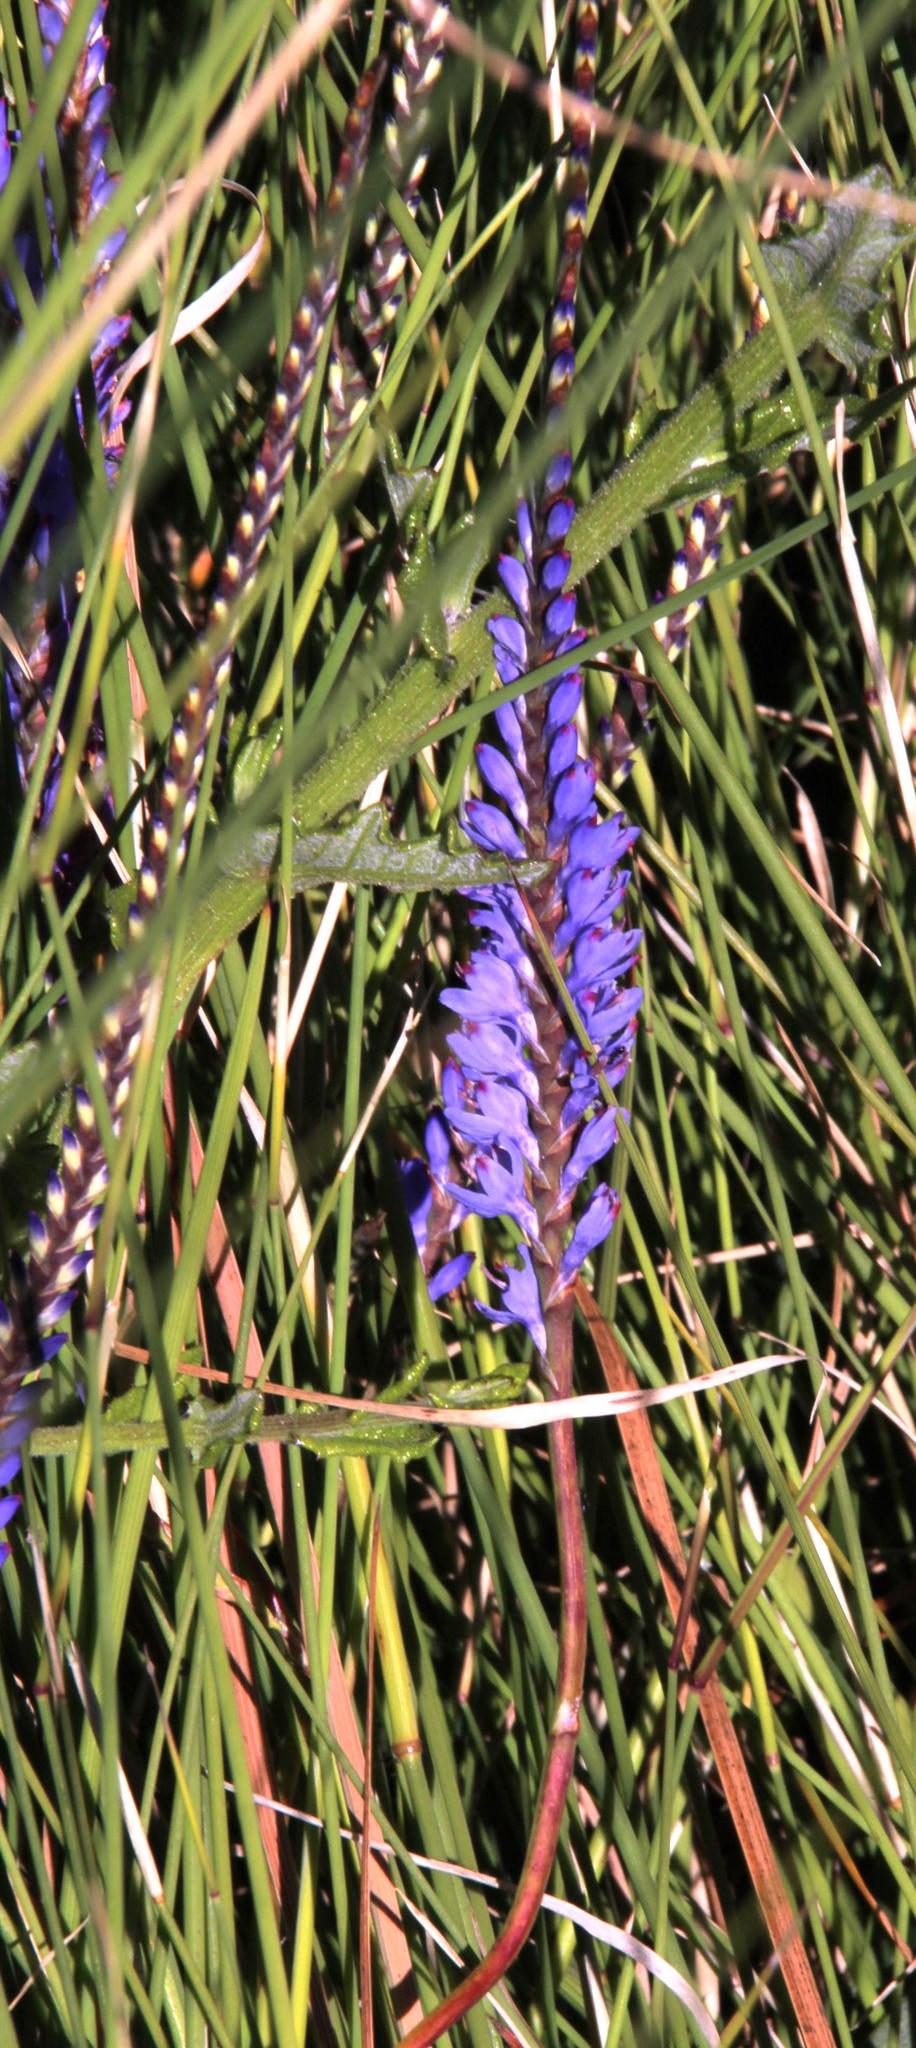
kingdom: Plantae
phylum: Tracheophyta
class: Liliopsida
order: Asparagales
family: Iridaceae
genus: Micranthus
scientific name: Micranthus alopecuroides
